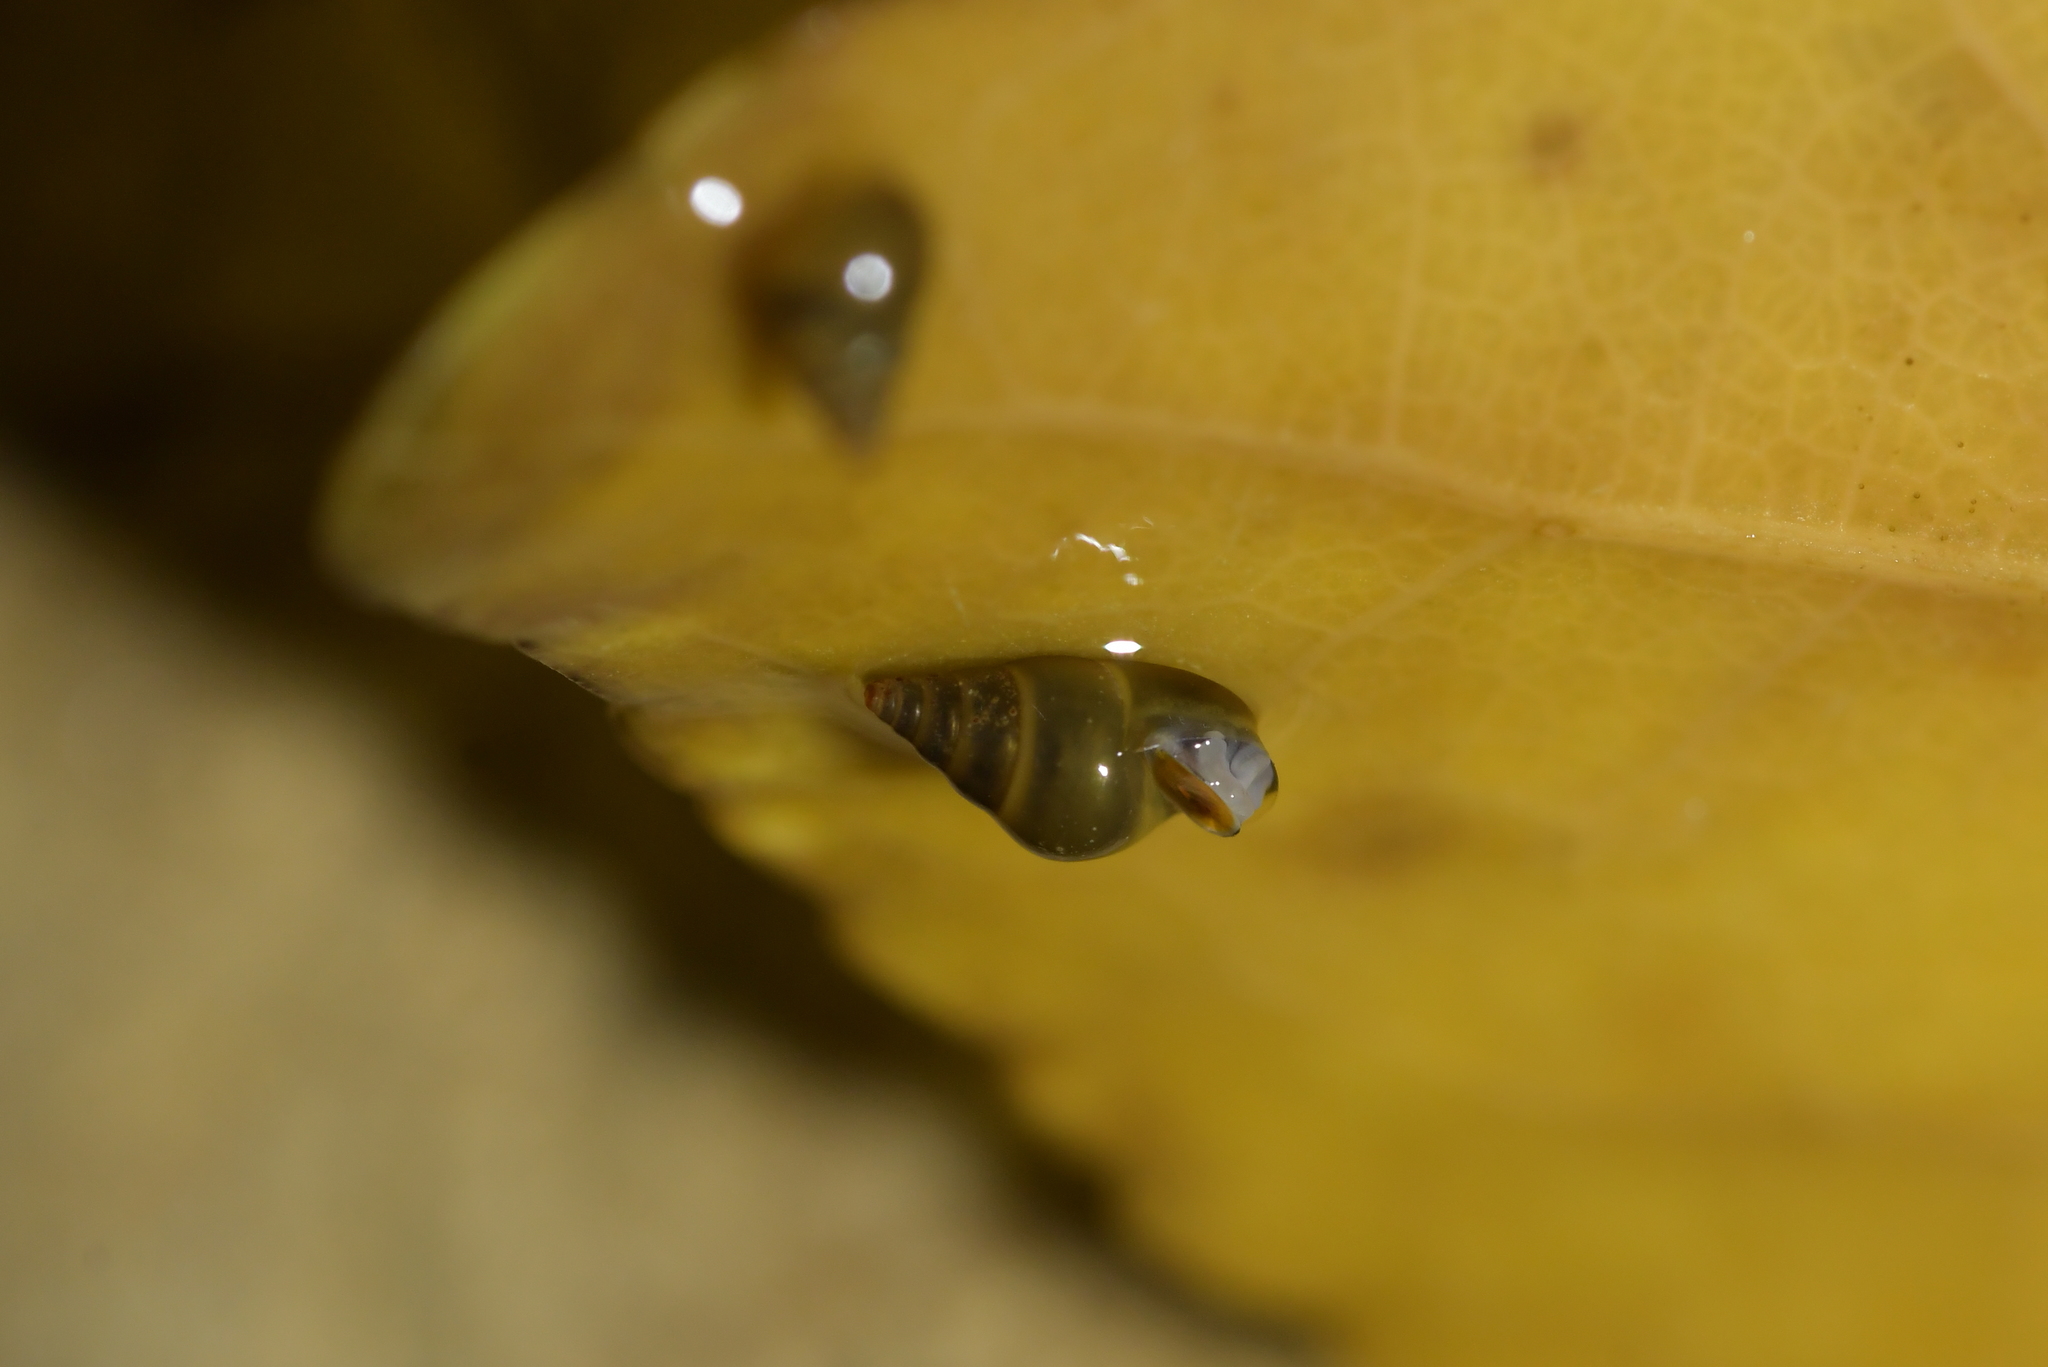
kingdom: Animalia
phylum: Mollusca
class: Gastropoda
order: Littorinimorpha
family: Tateidae
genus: Potamopyrgus
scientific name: Potamopyrgus antipodarum
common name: Jenkins' spire snail
